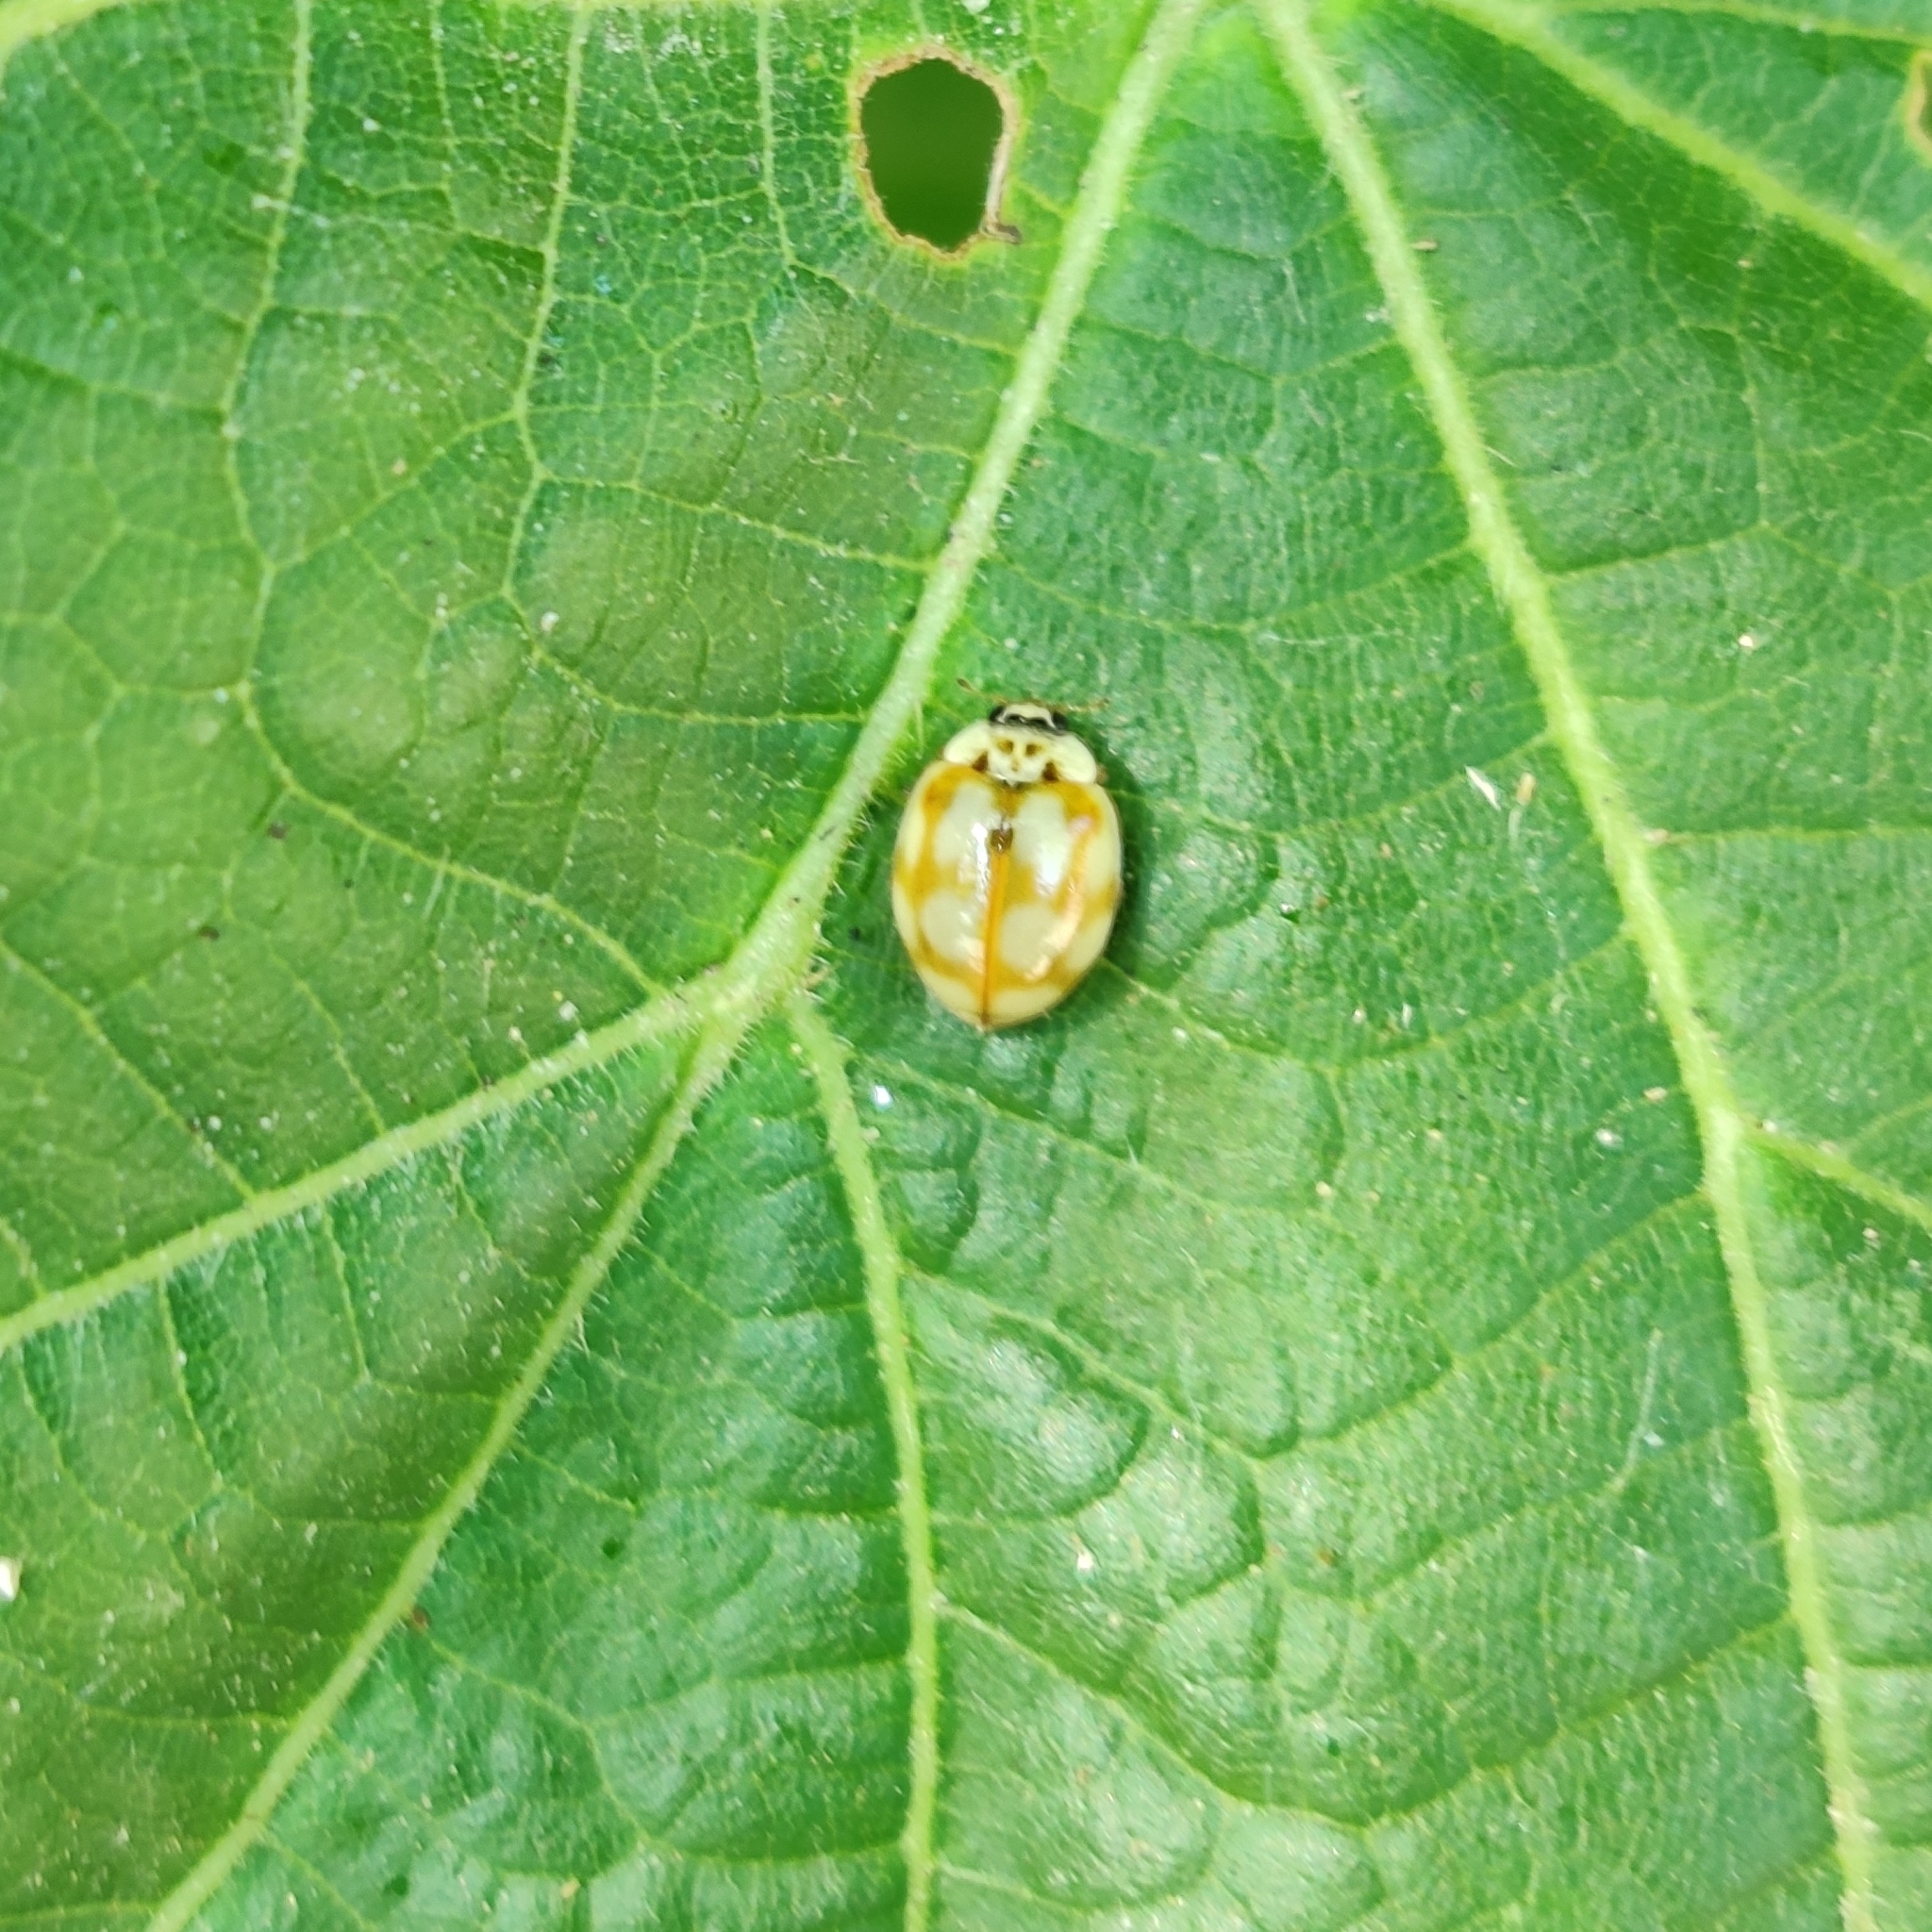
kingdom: Animalia
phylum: Arthropoda
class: Insecta
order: Coleoptera
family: Coccinellidae
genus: Adalia
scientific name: Adalia decempunctata
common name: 10-spot ladybird
